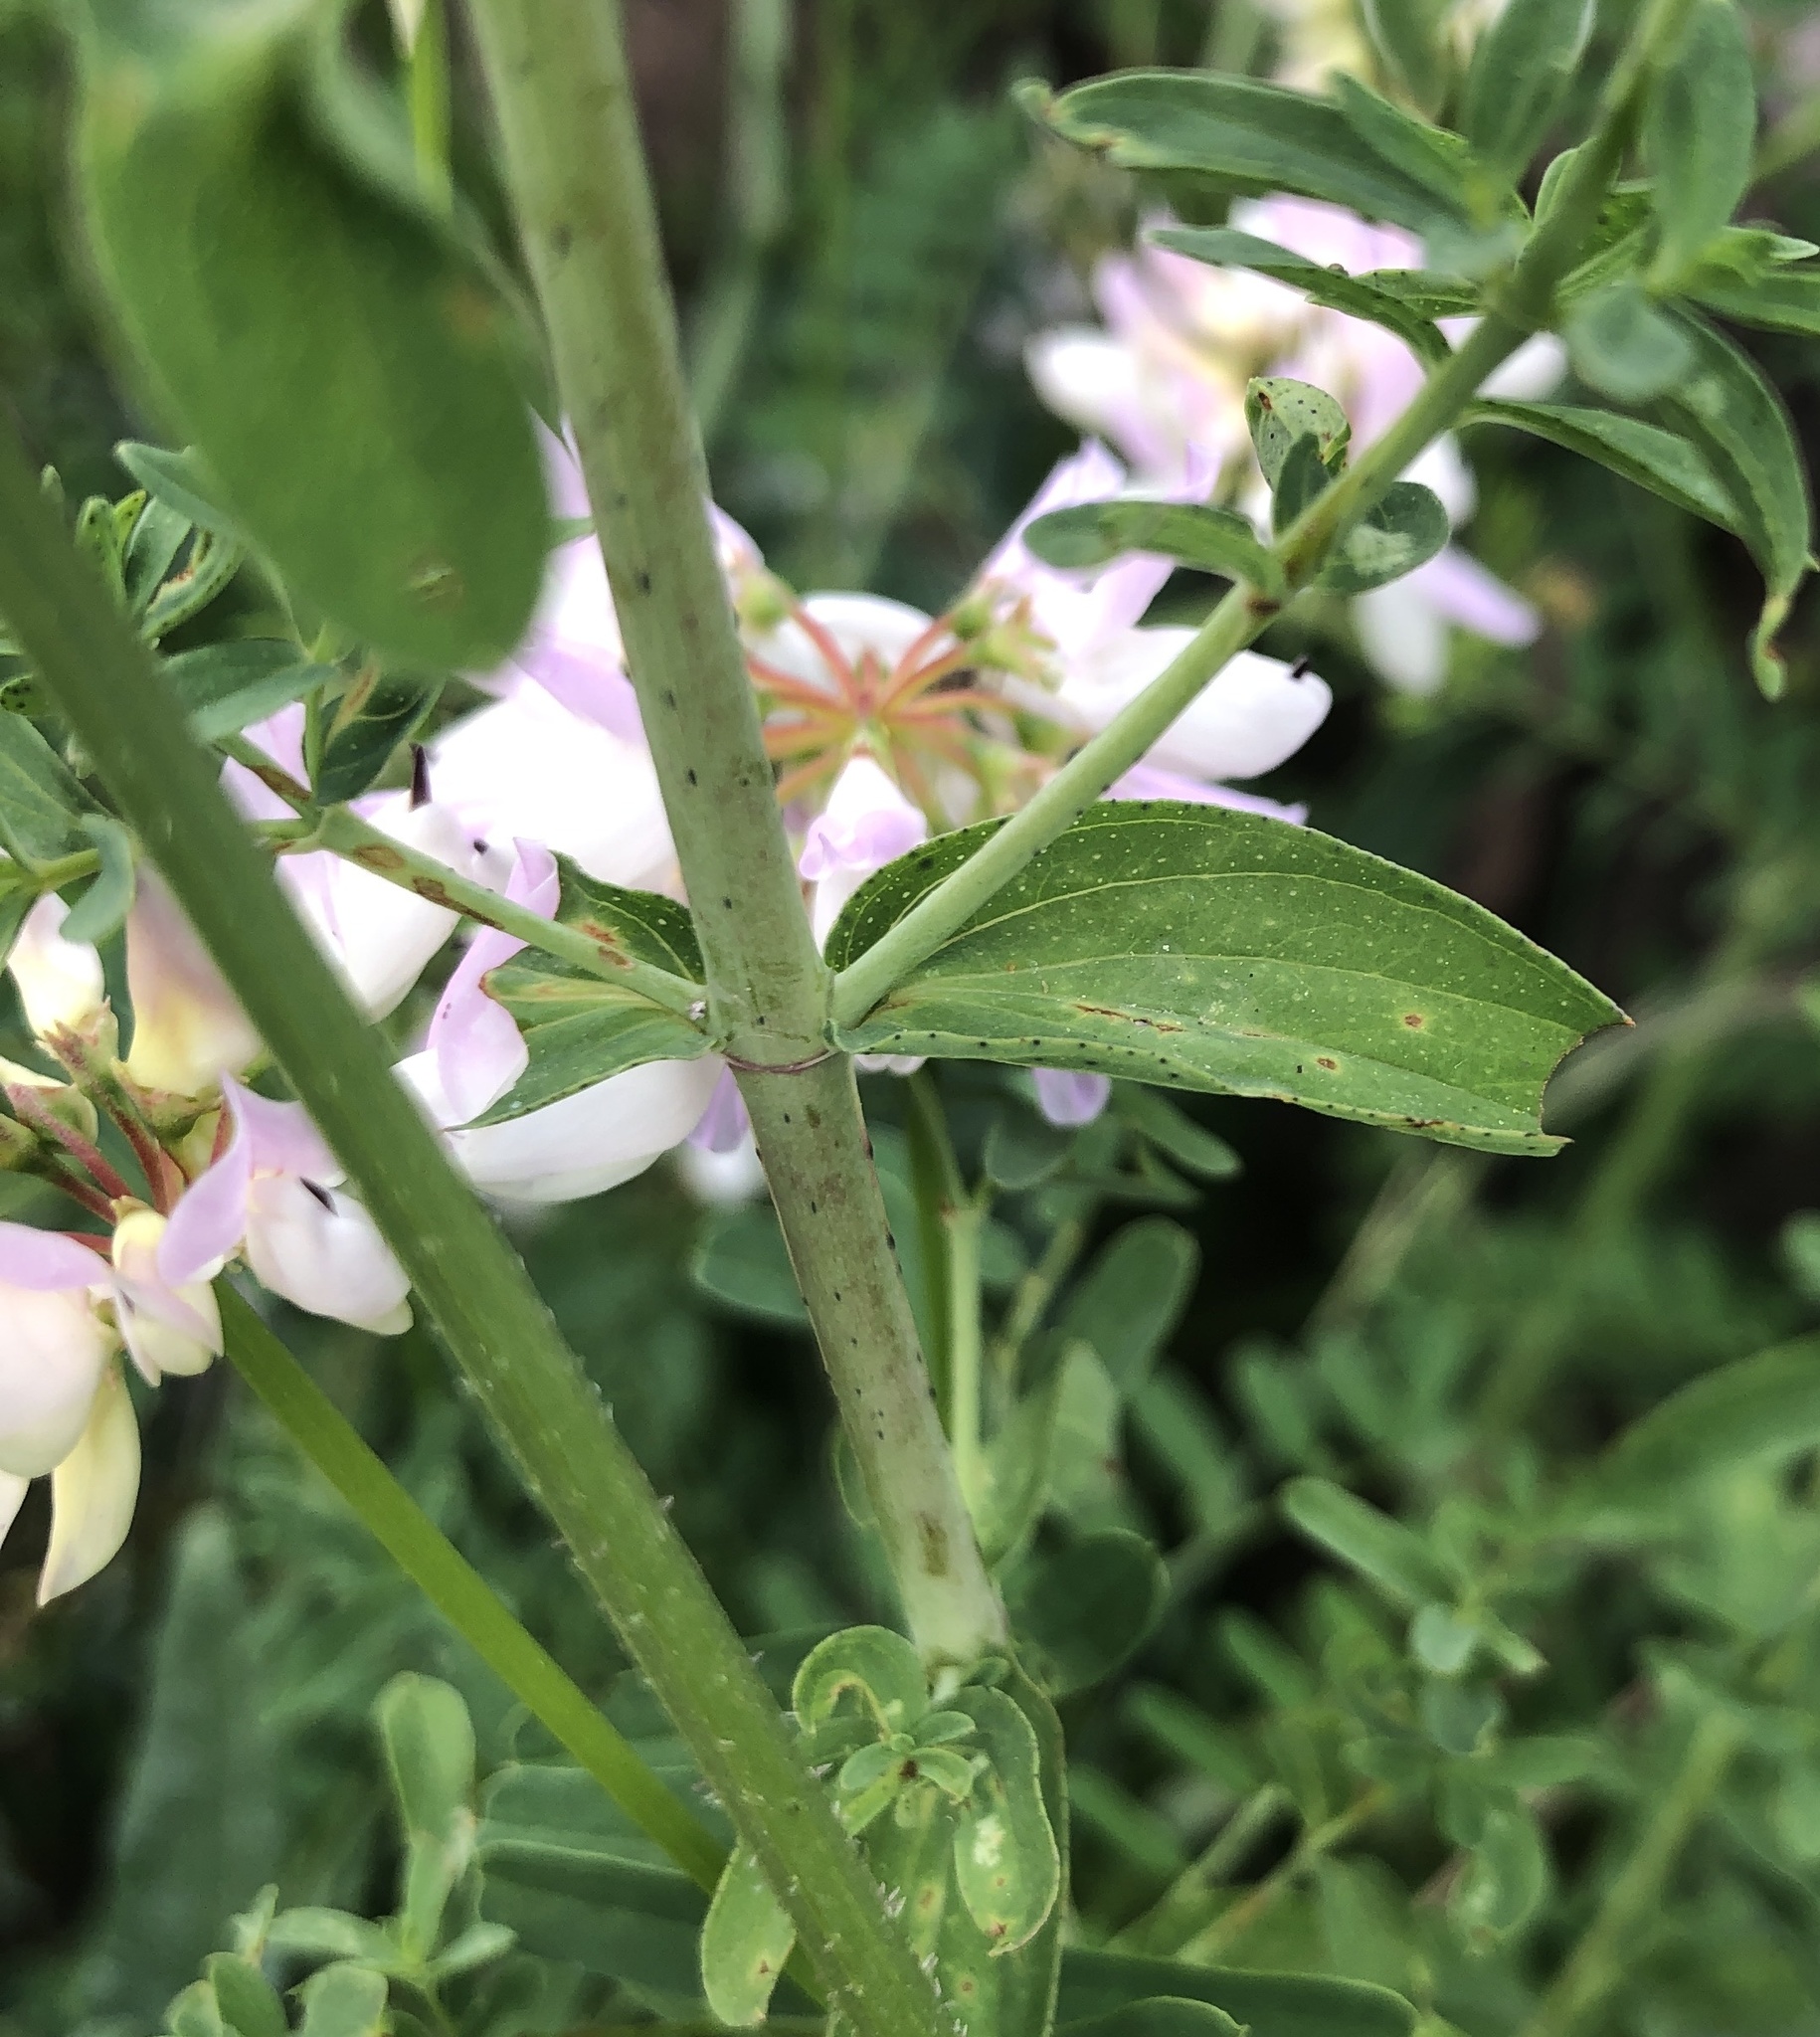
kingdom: Plantae
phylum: Tracheophyta
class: Magnoliopsida
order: Malpighiales
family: Hypericaceae
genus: Hypericum
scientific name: Hypericum perforatum
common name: Common st. johnswort
